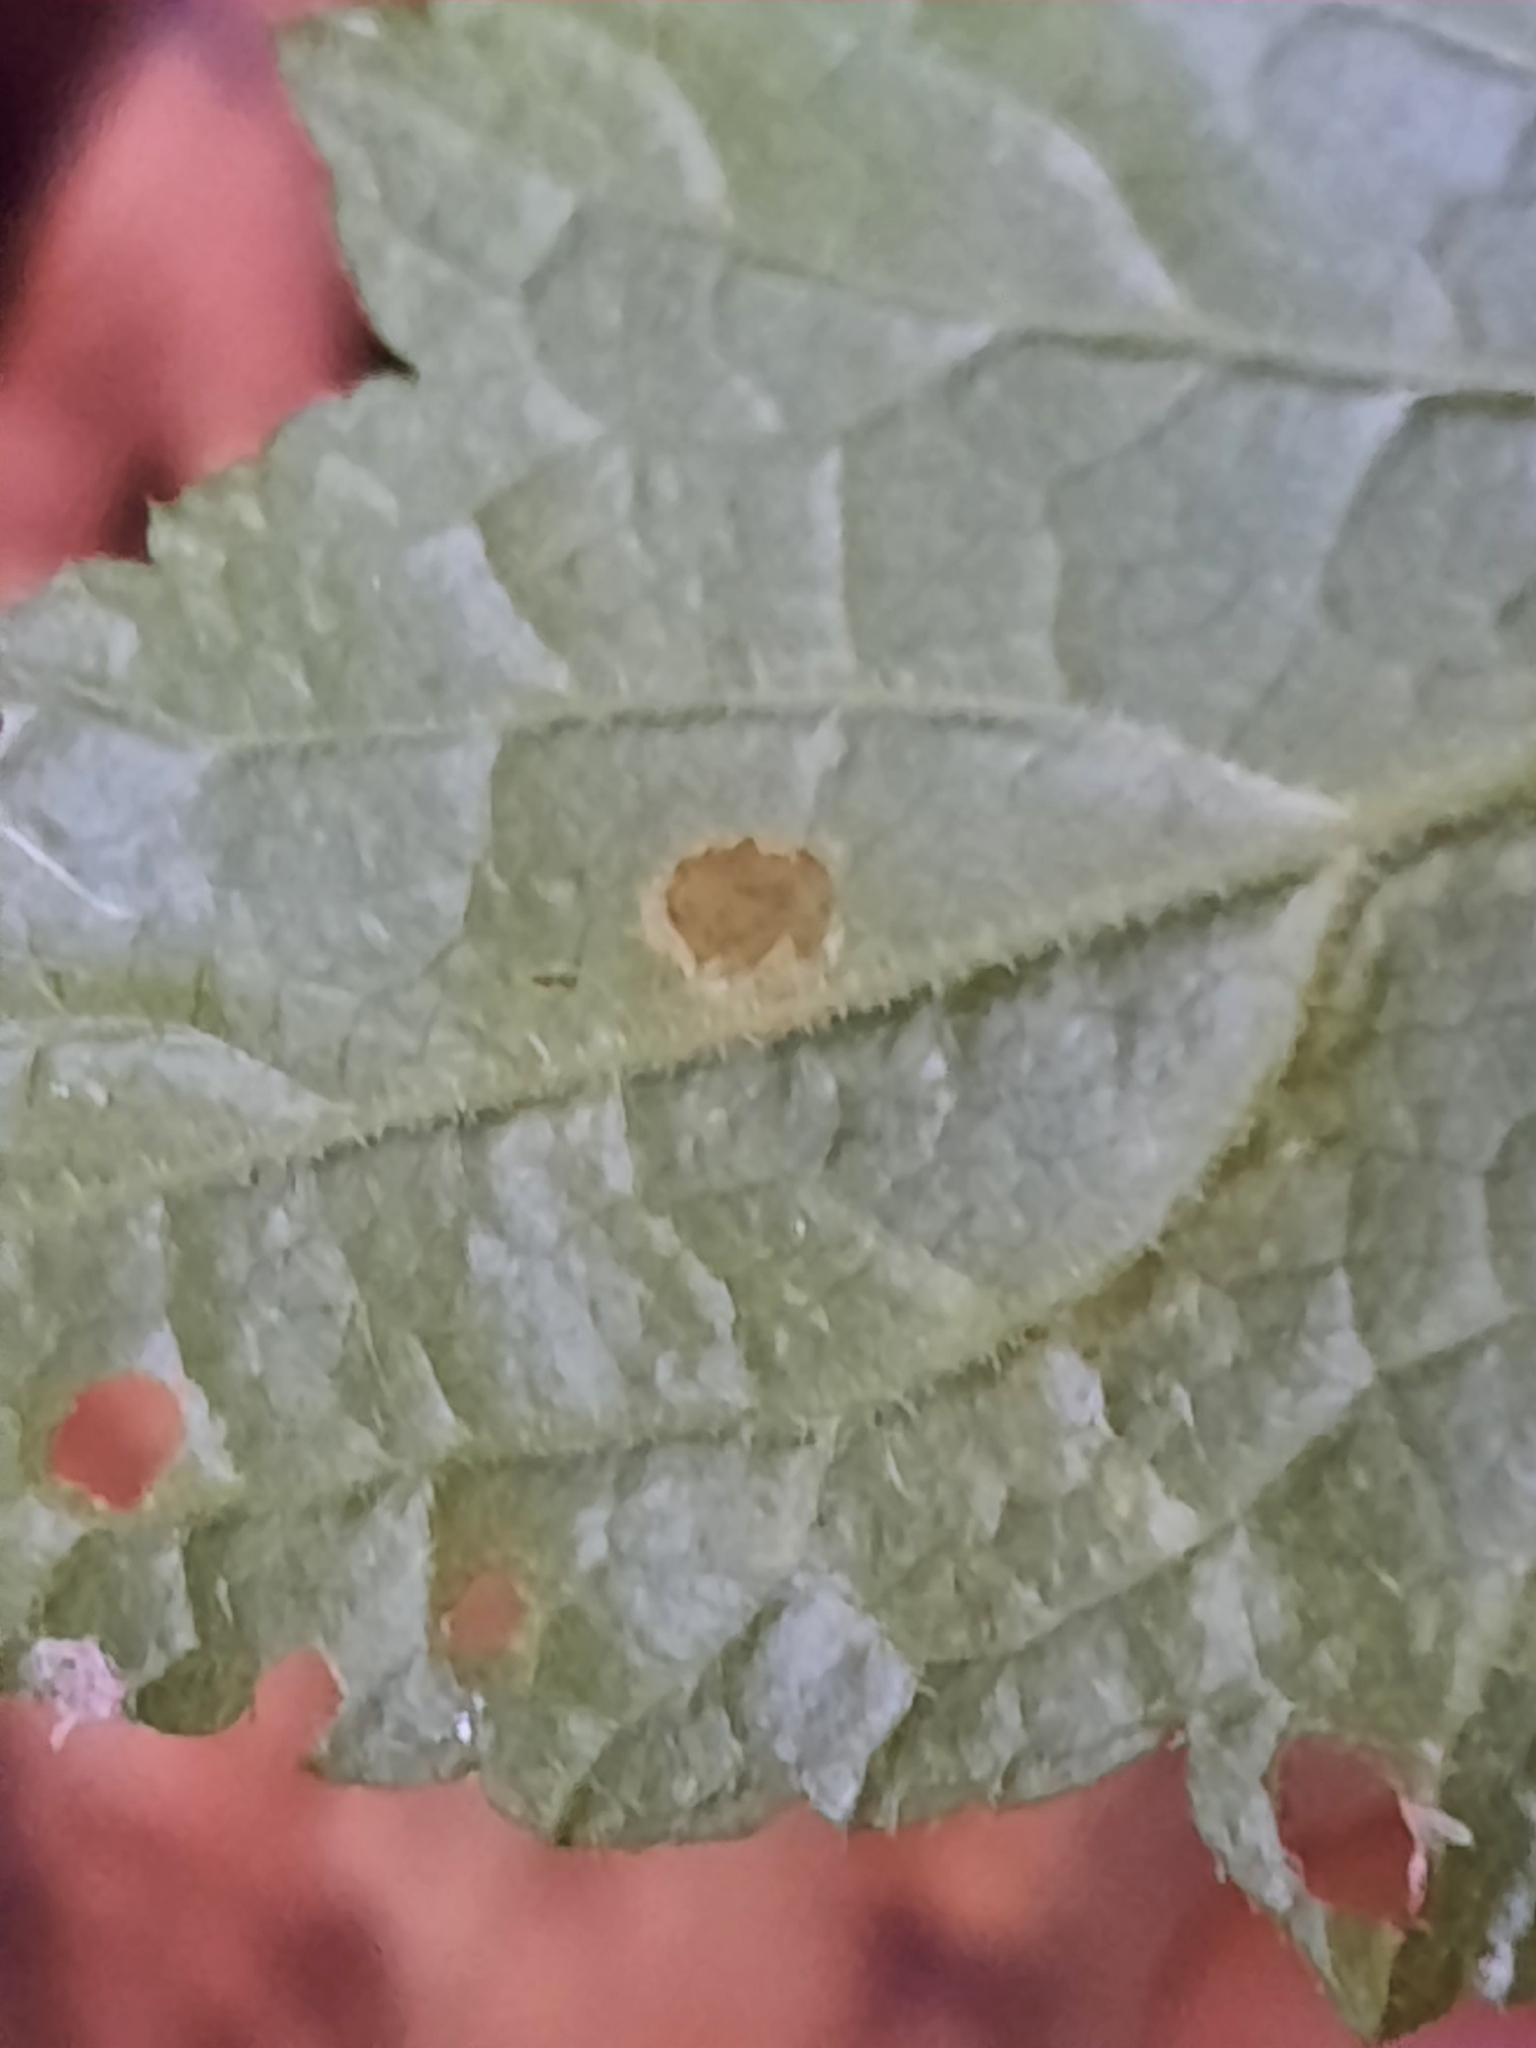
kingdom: Plantae
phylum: Tracheophyta
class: Magnoliopsida
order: Saxifragales
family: Saxifragaceae
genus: Mitella
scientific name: Mitella diphylla
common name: Coolwort
